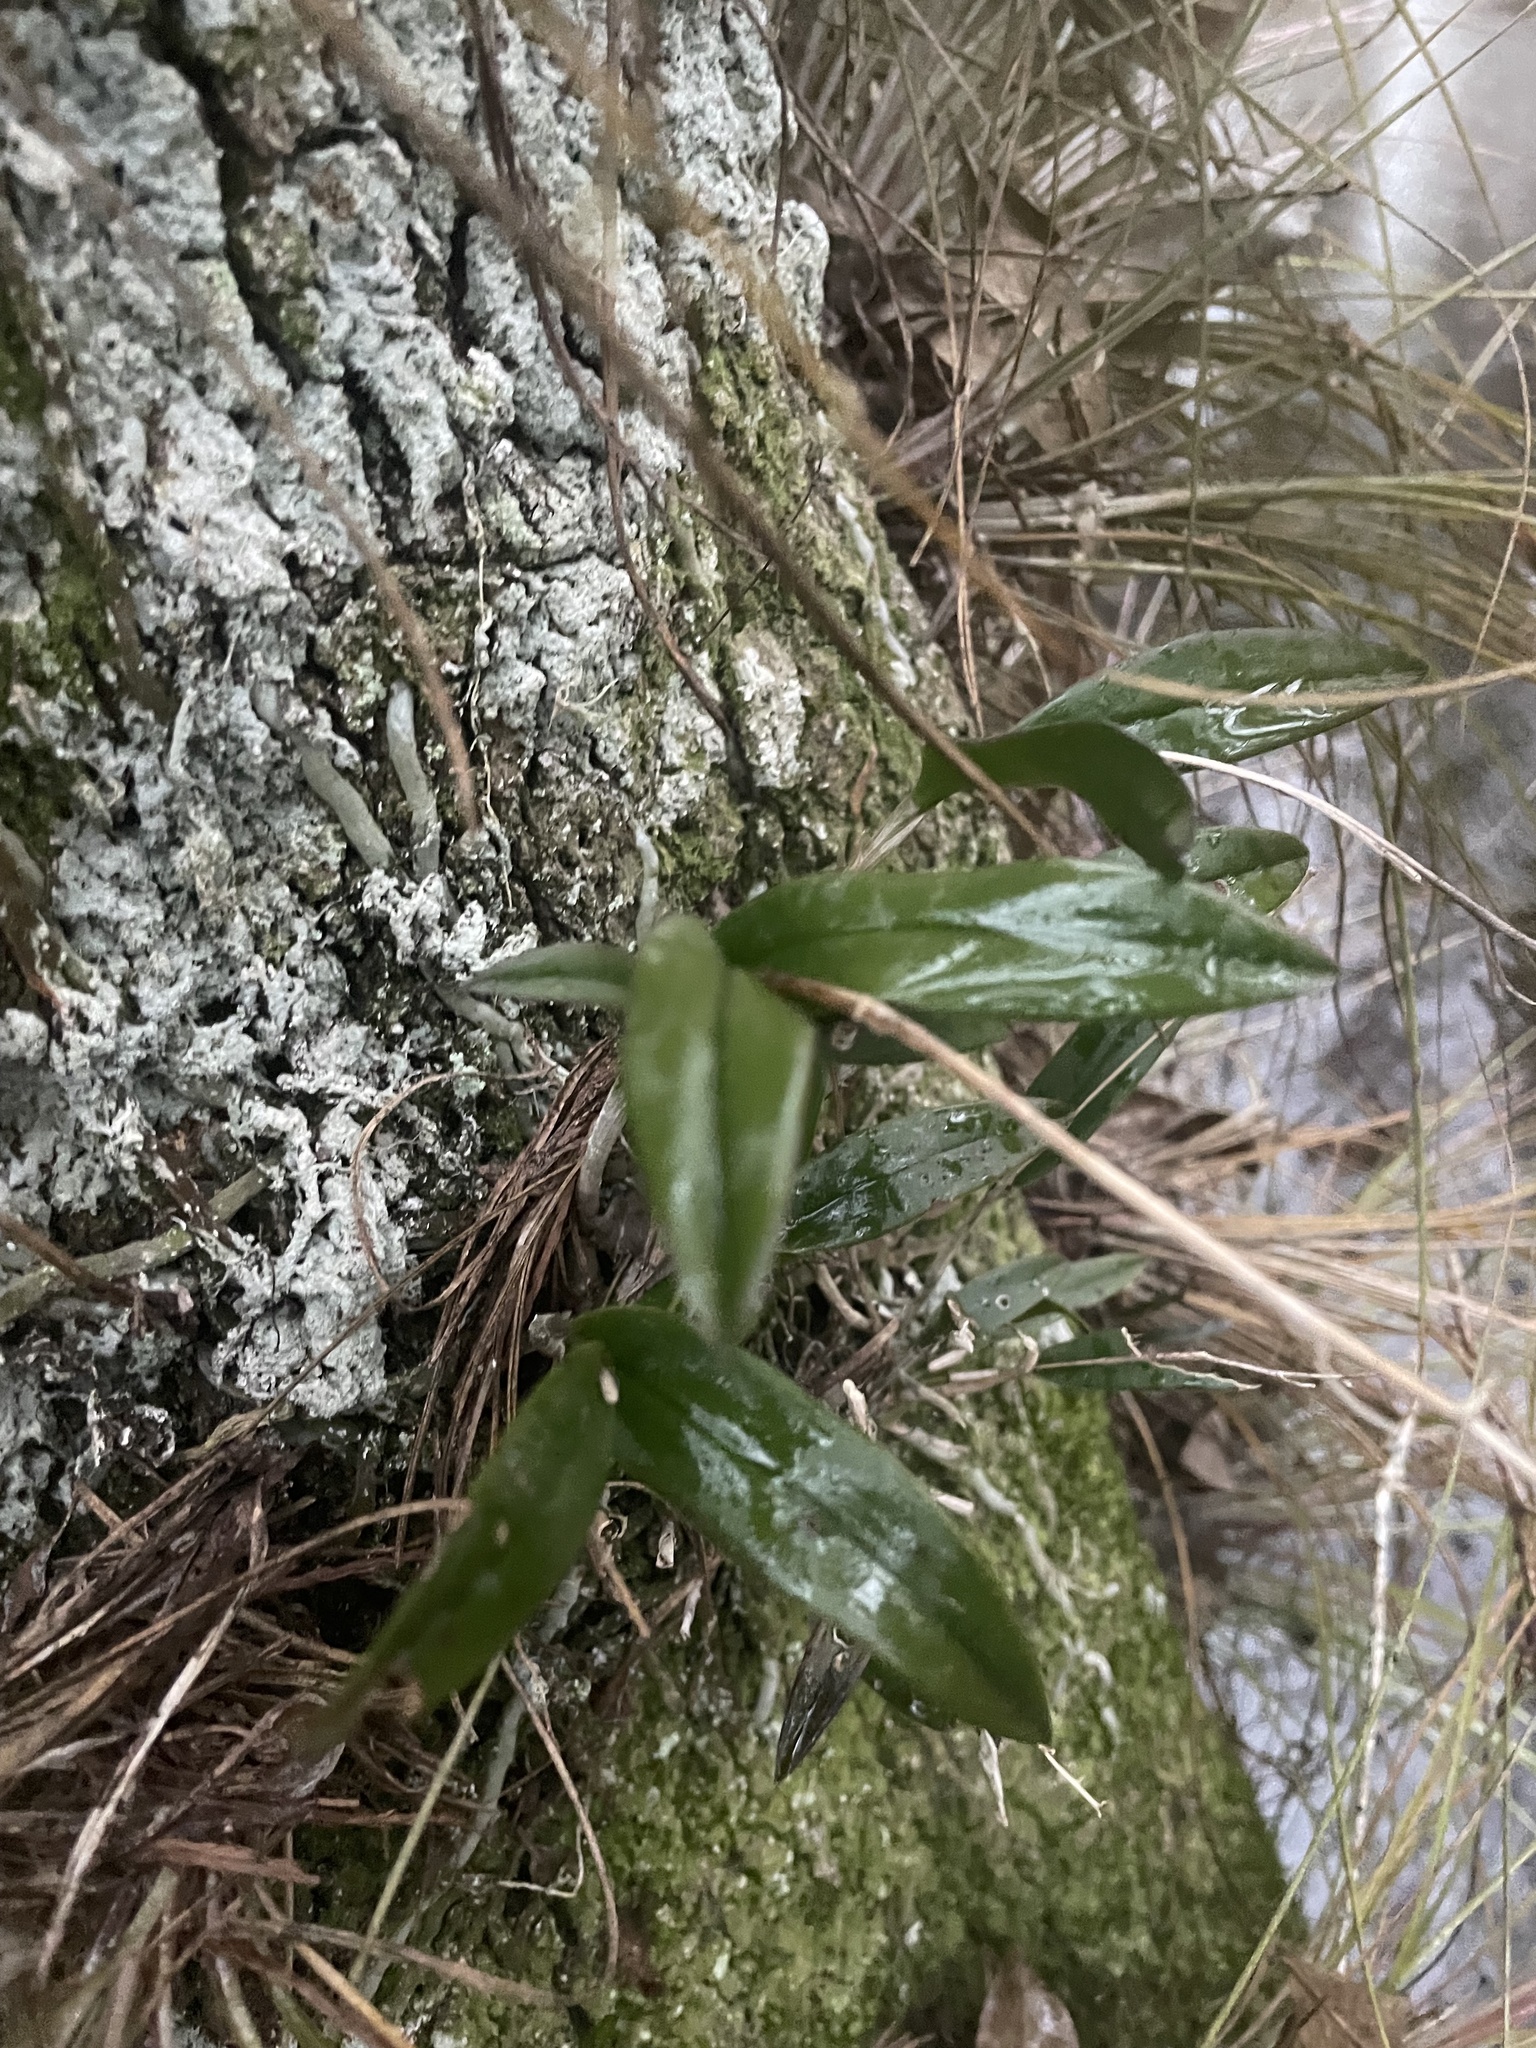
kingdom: Plantae
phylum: Tracheophyta
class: Liliopsida
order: Asparagales
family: Orchidaceae
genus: Epidendrum
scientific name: Epidendrum conopseum
